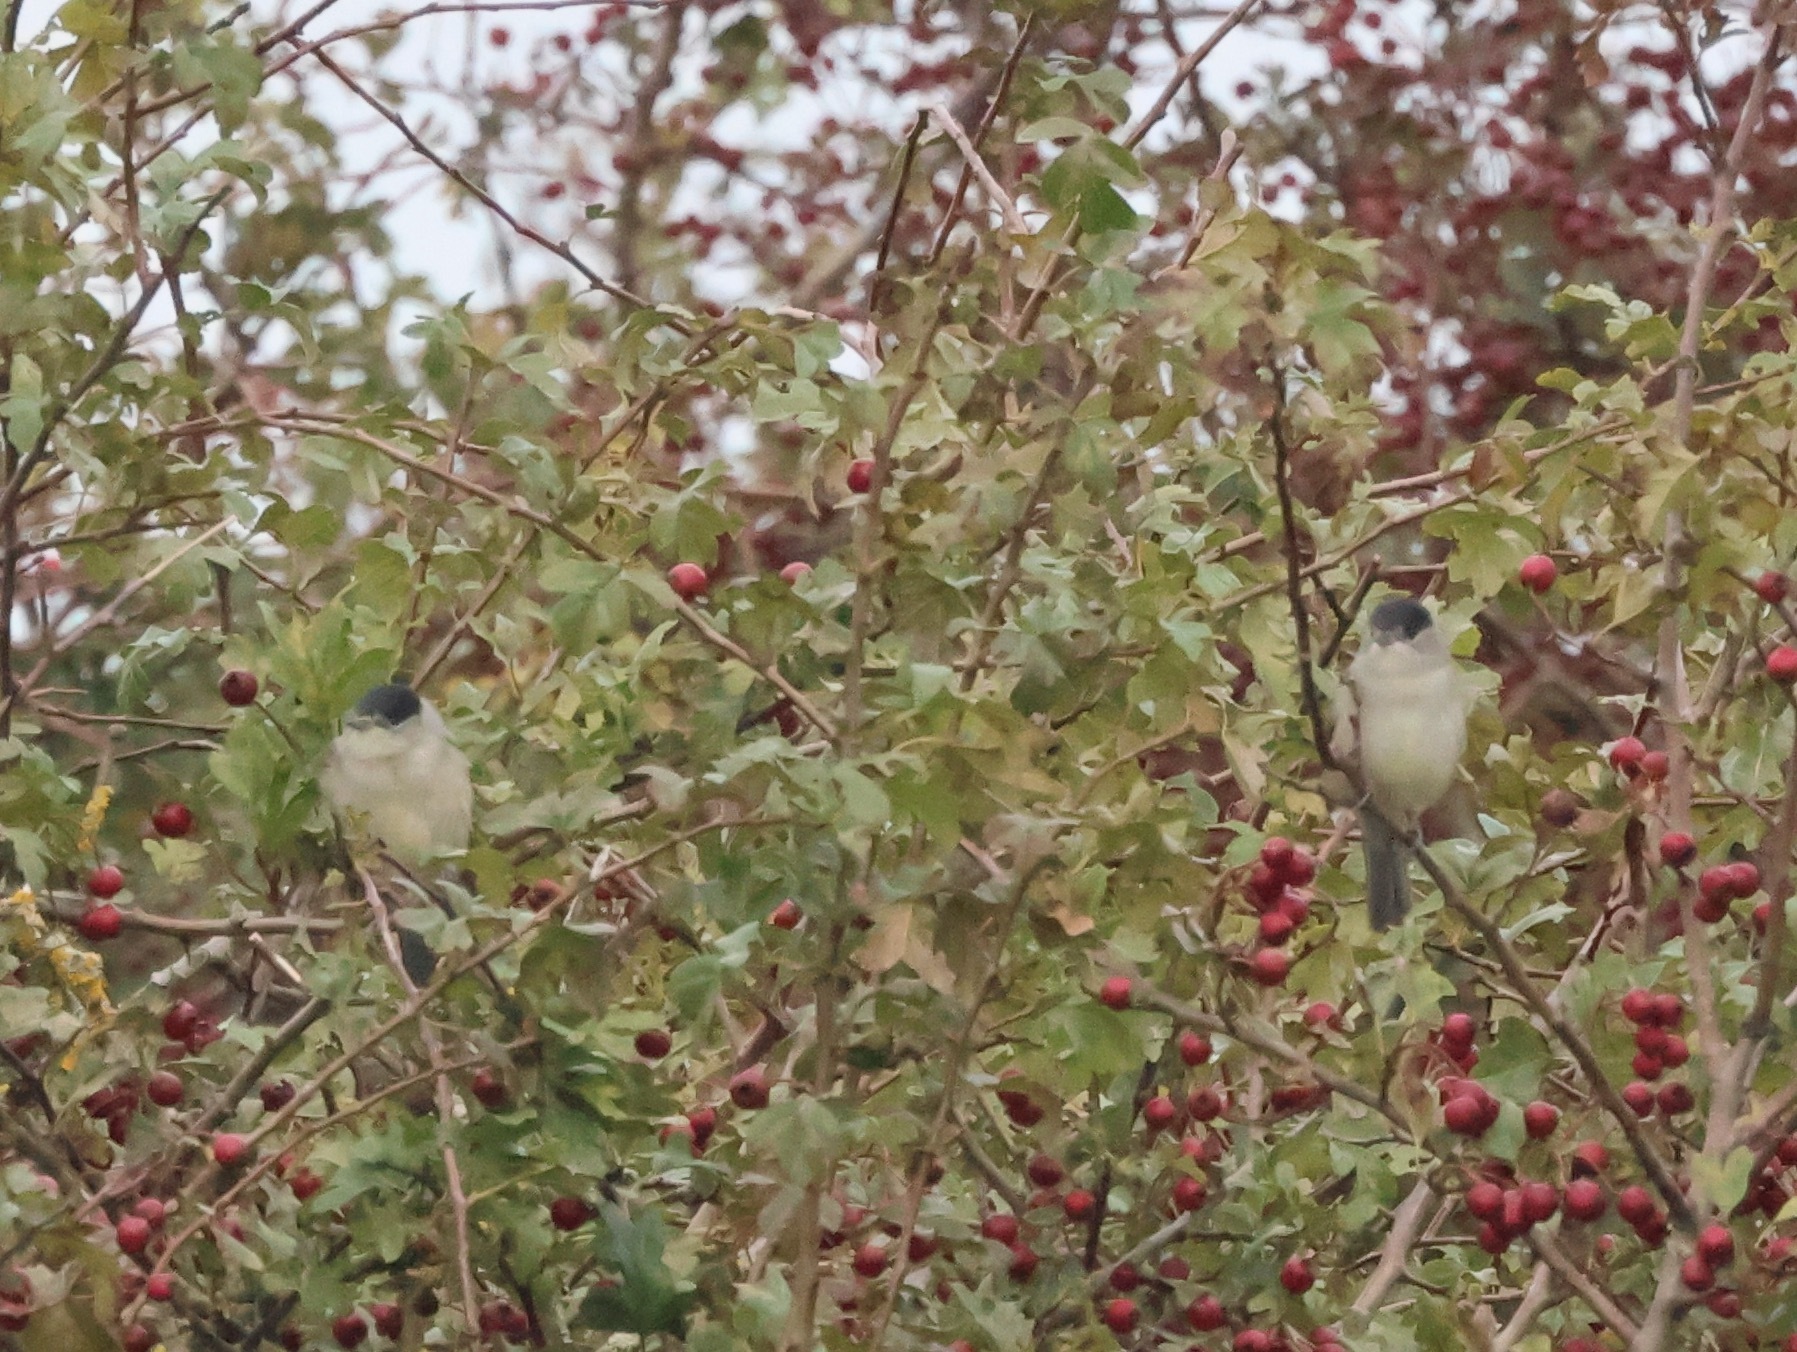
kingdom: Animalia
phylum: Chordata
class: Aves
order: Passeriformes
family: Sylviidae
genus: Sylvia
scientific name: Sylvia atricapilla
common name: Eurasian blackcap
